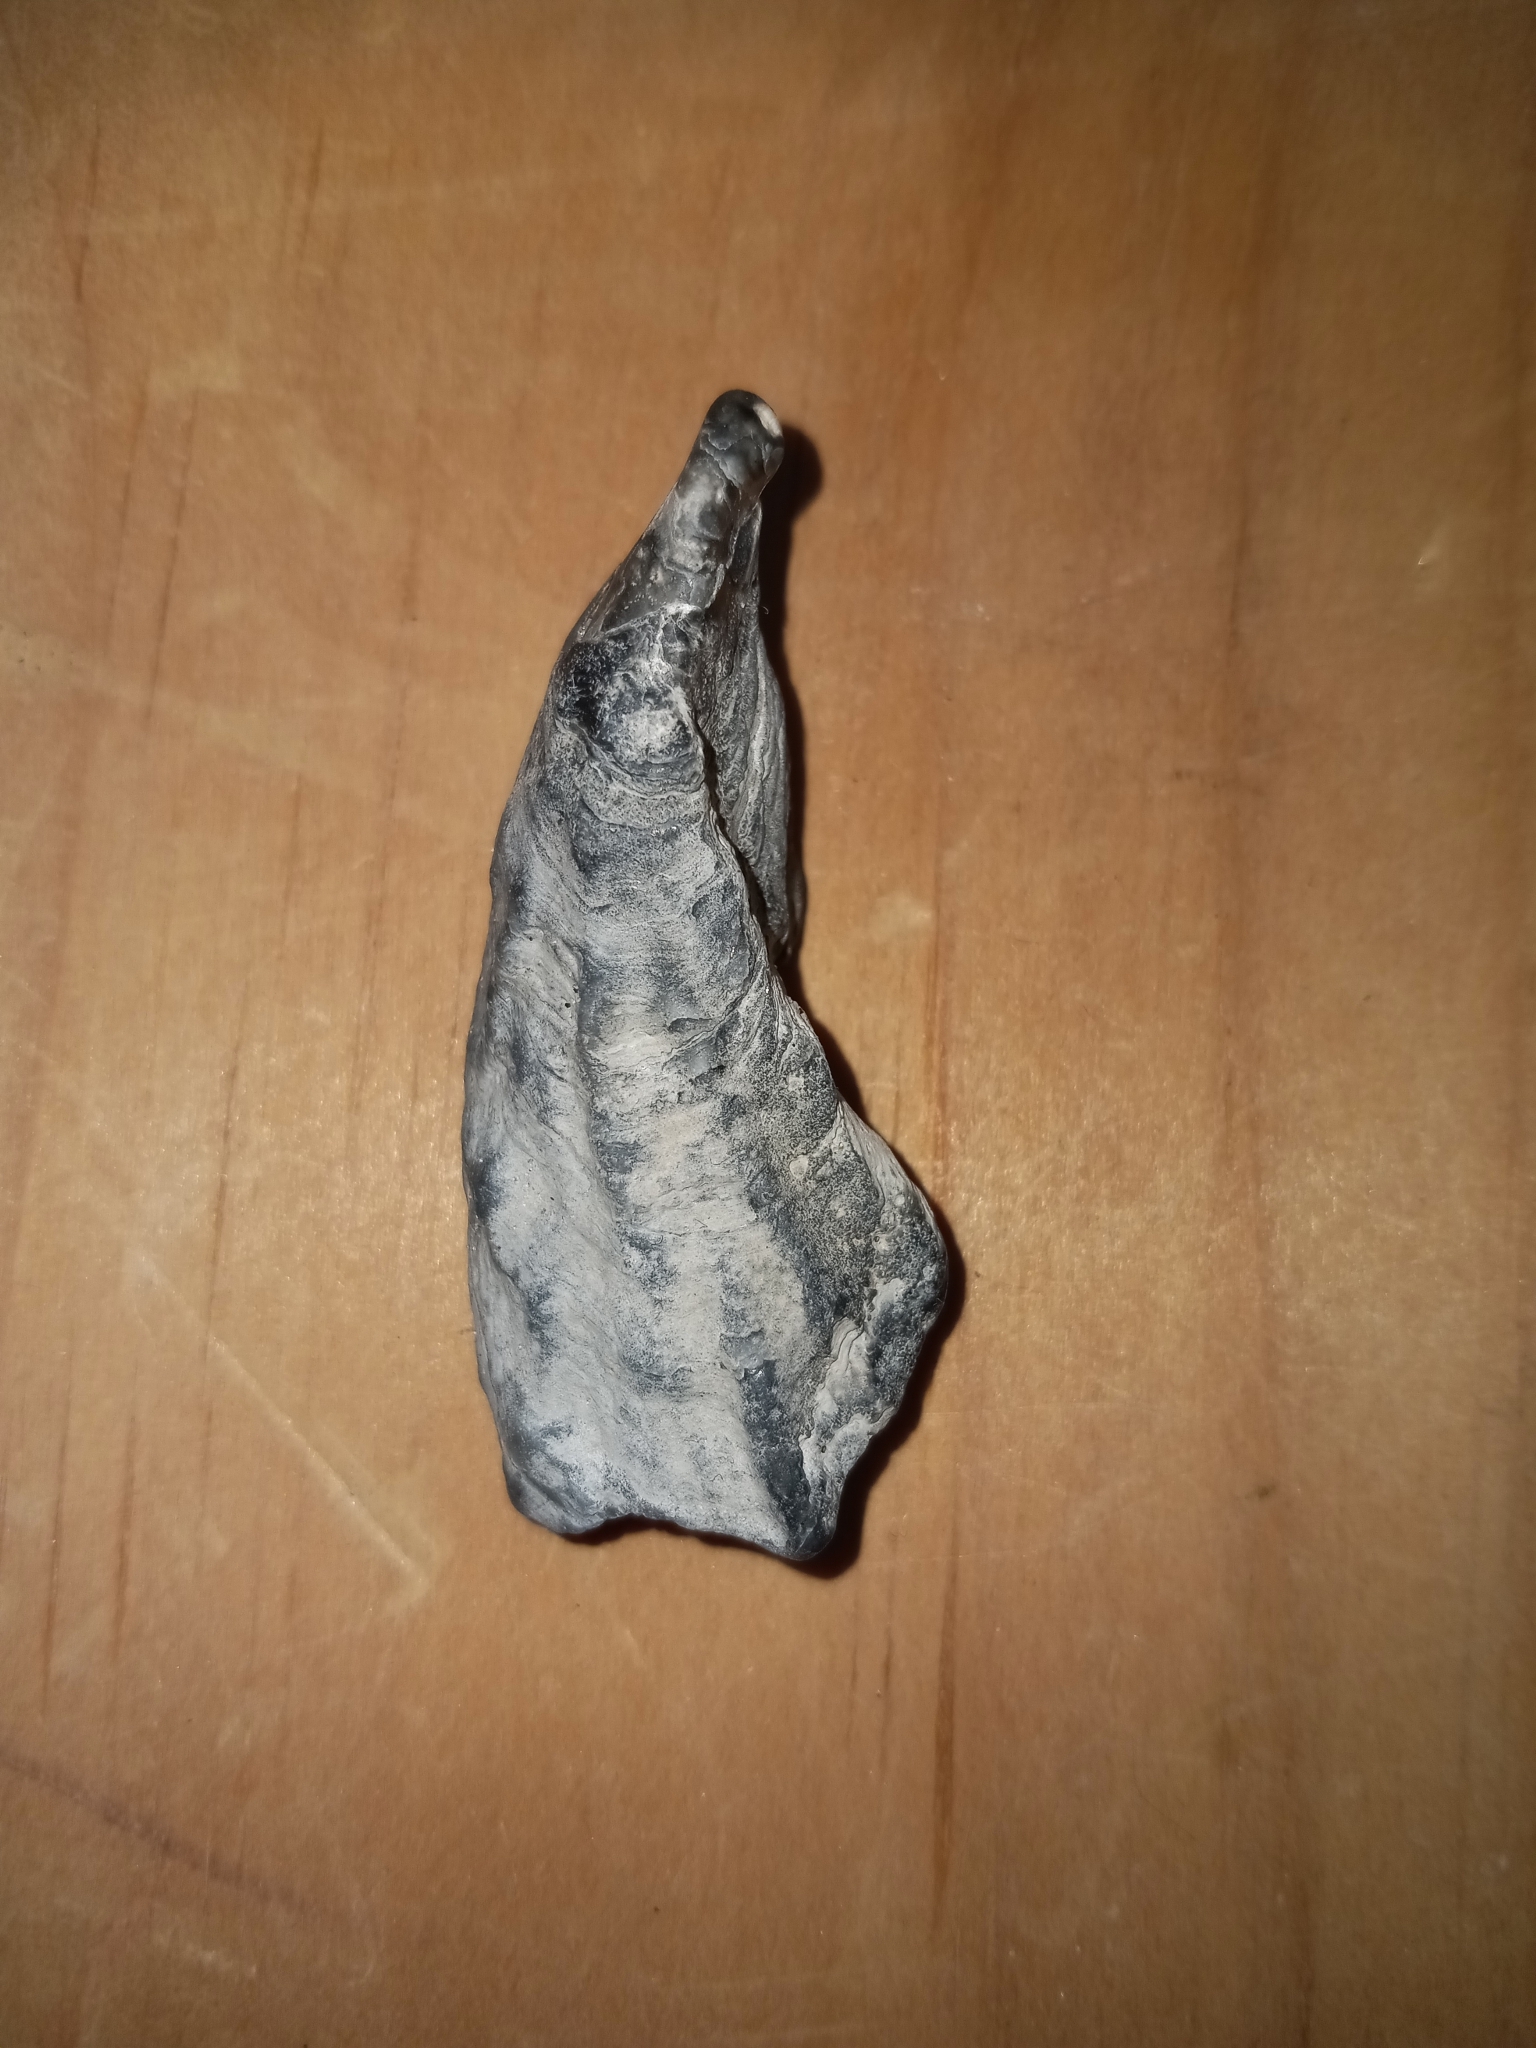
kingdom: Animalia
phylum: Mollusca
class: Bivalvia
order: Ostreida
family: Ostreidae
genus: Crassostrea
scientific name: Crassostrea virginica
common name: American oyster
